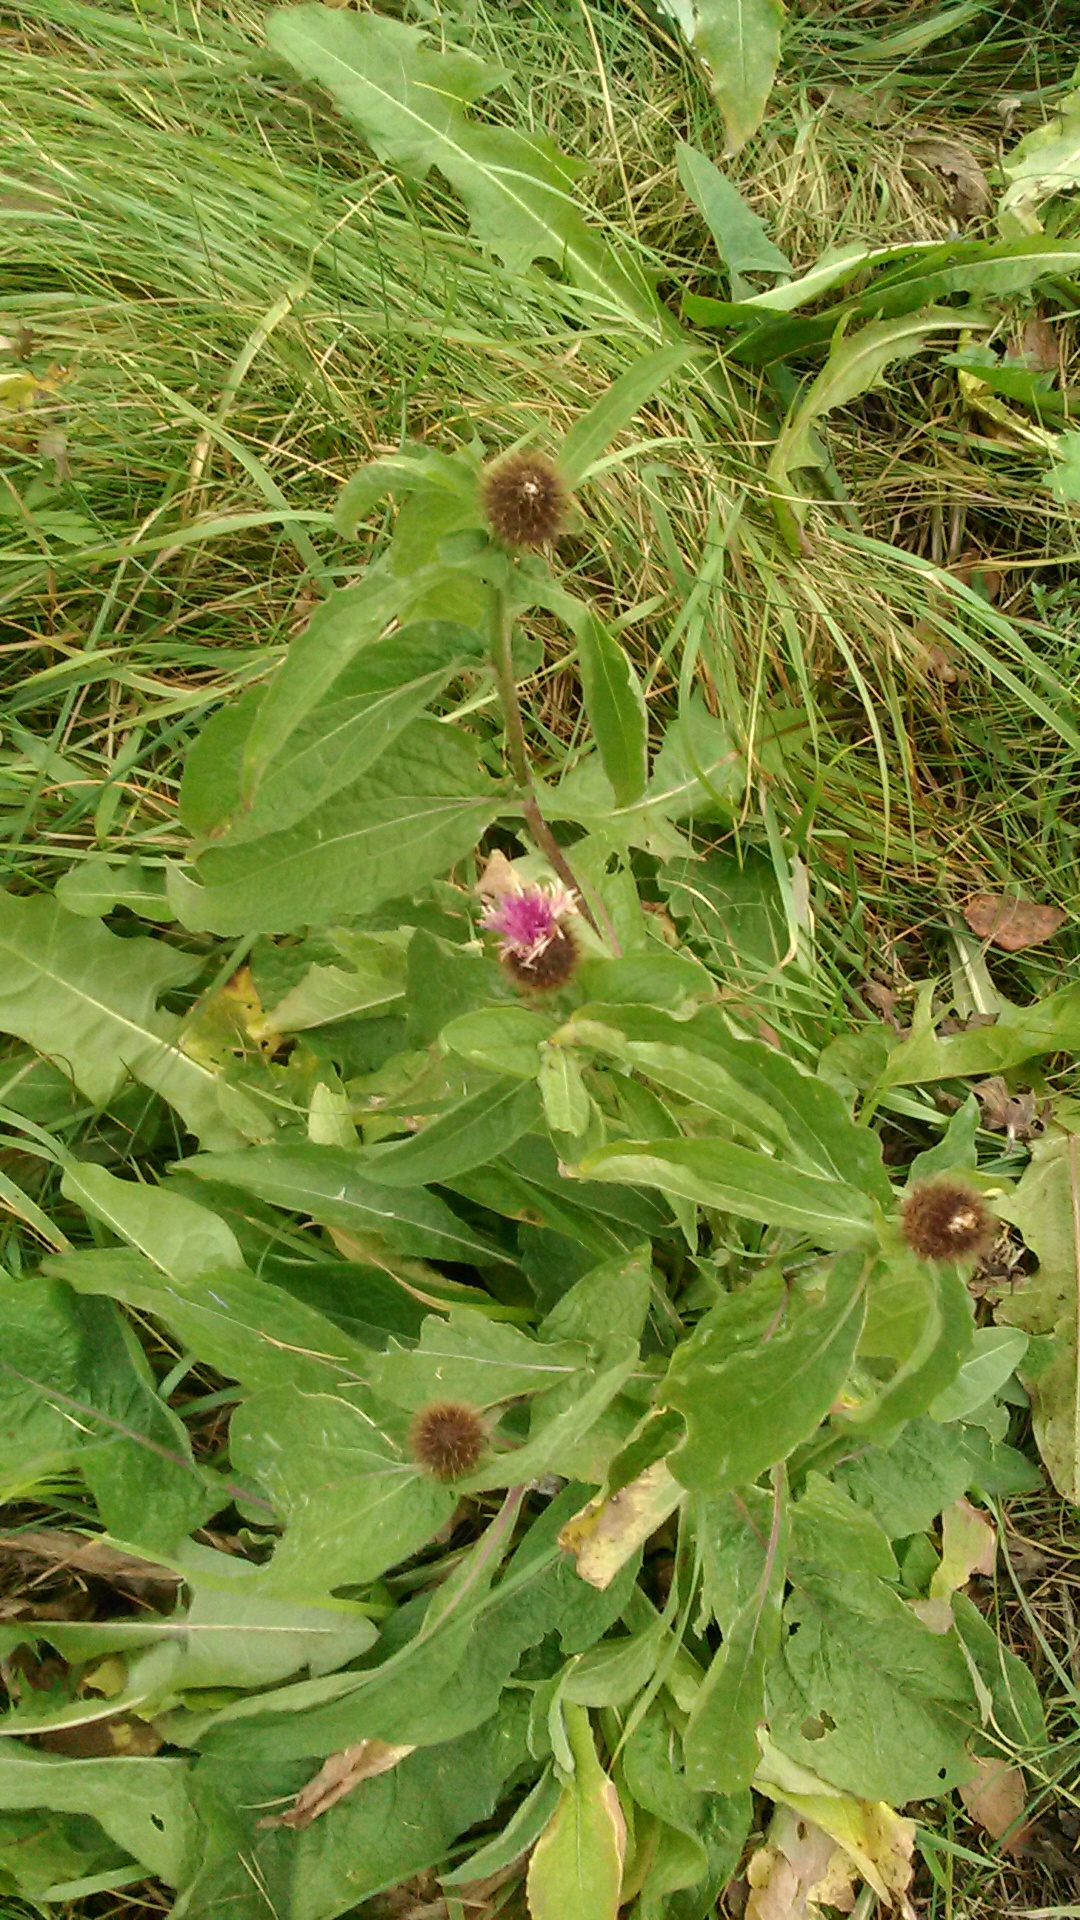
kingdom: Plantae
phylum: Tracheophyta
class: Magnoliopsida
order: Asterales
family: Asteraceae
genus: Centaurea
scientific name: Centaurea phrygia
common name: Wig knapweed
